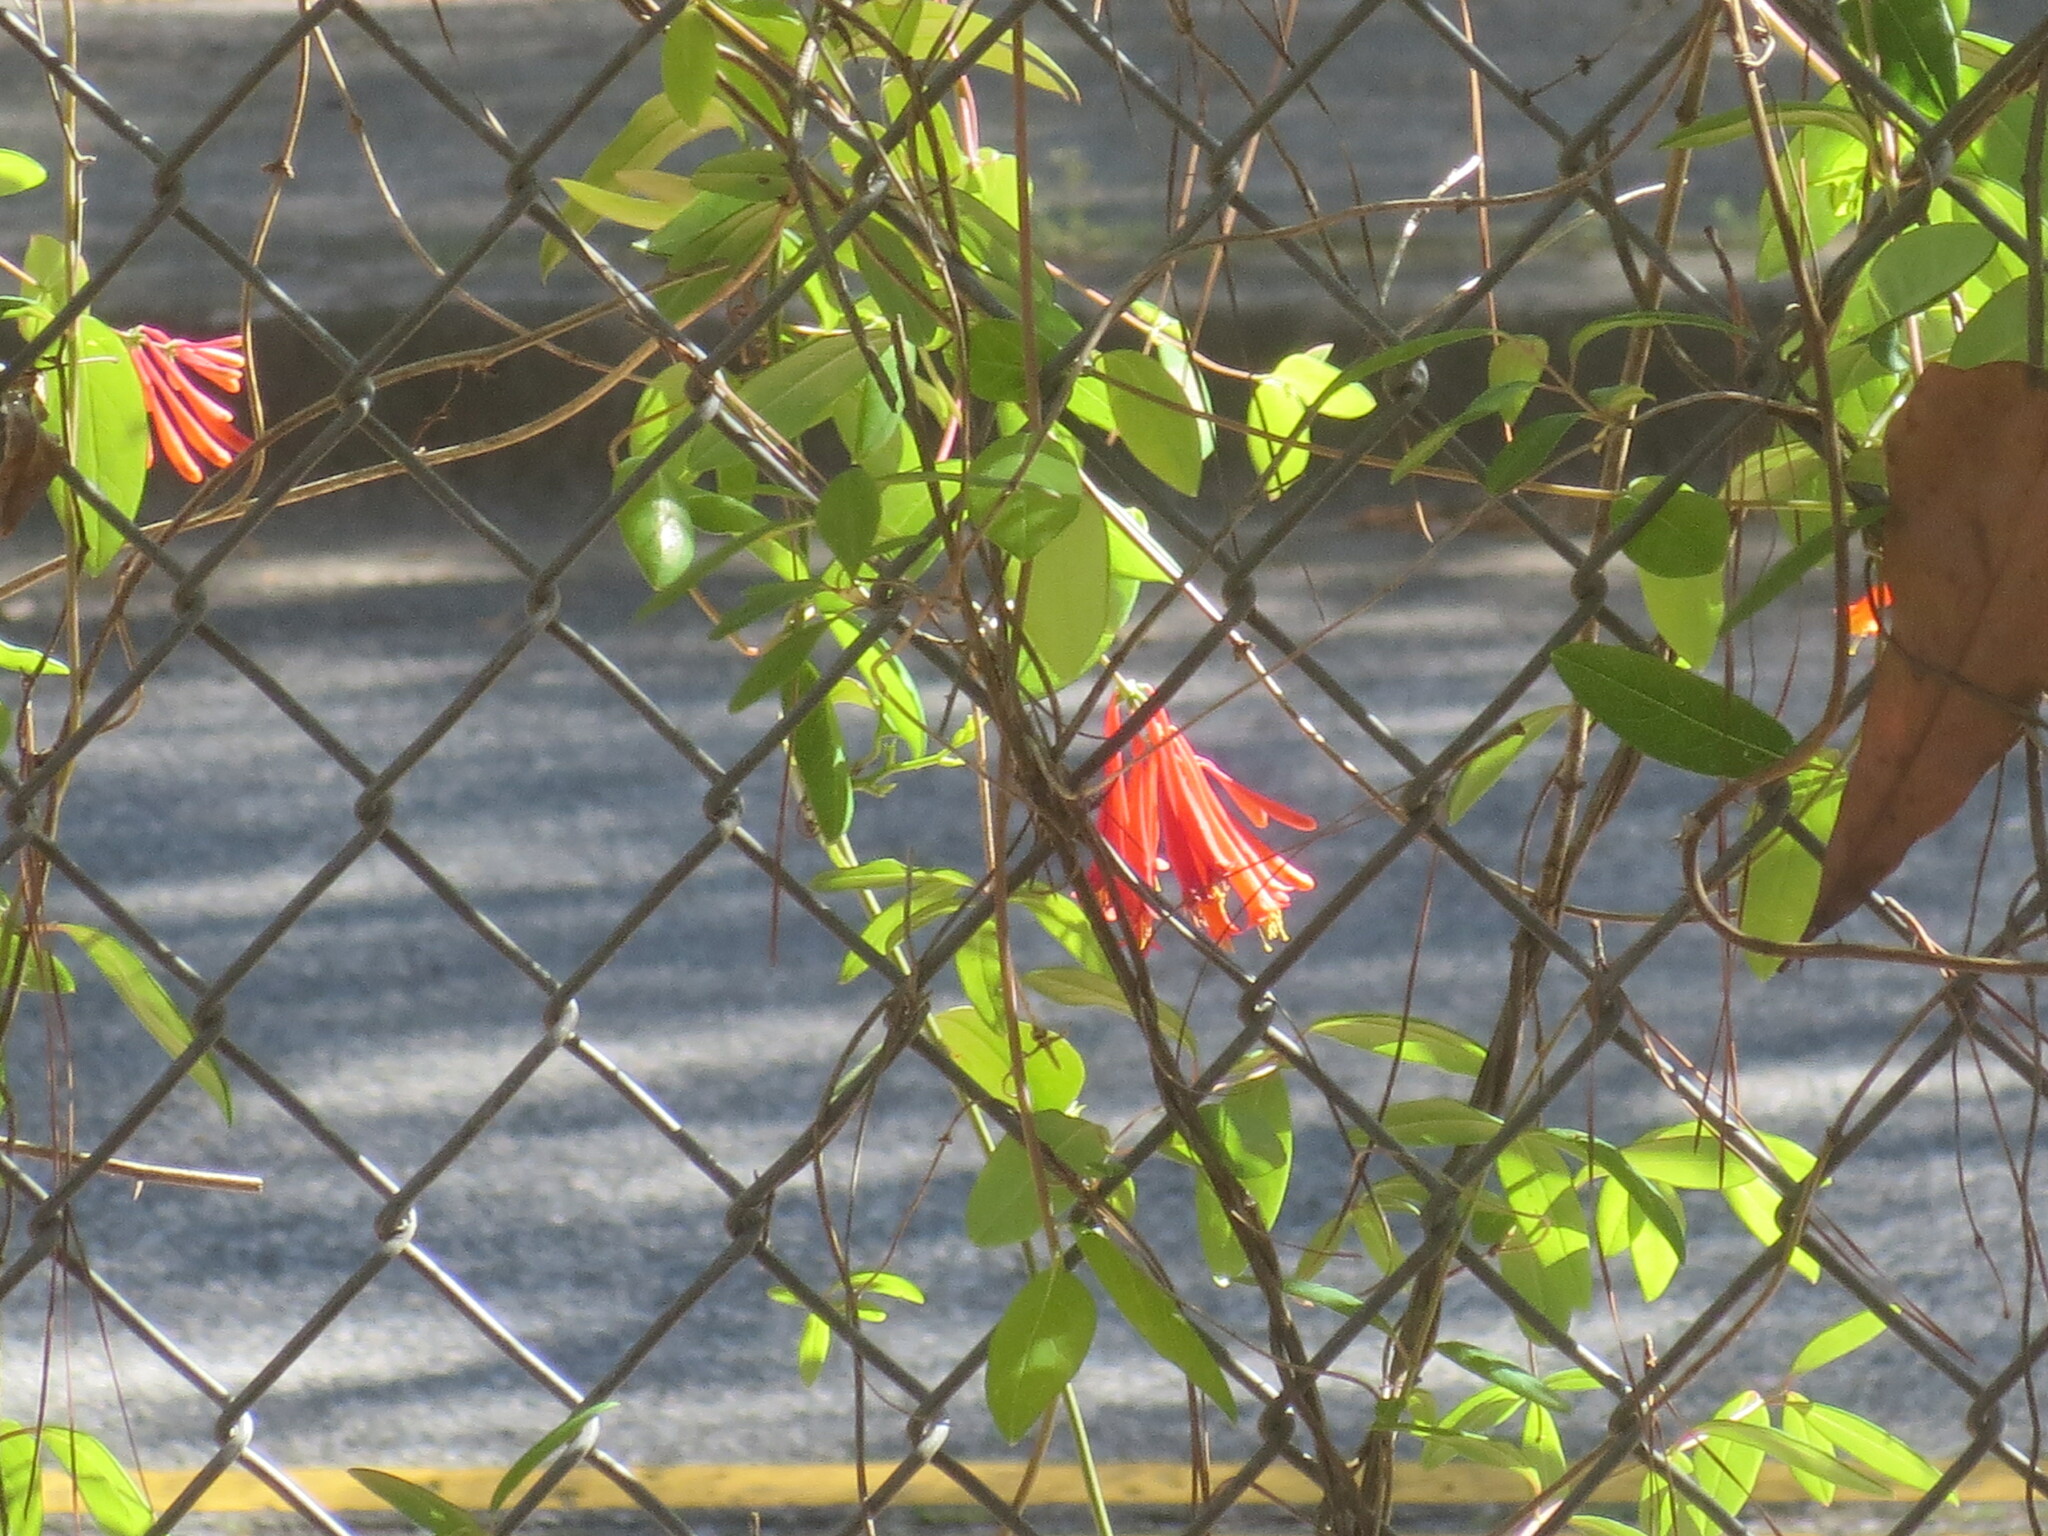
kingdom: Plantae
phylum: Tracheophyta
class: Magnoliopsida
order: Dipsacales
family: Caprifoliaceae
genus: Lonicera
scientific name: Lonicera sempervirens
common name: Coral honeysuckle
